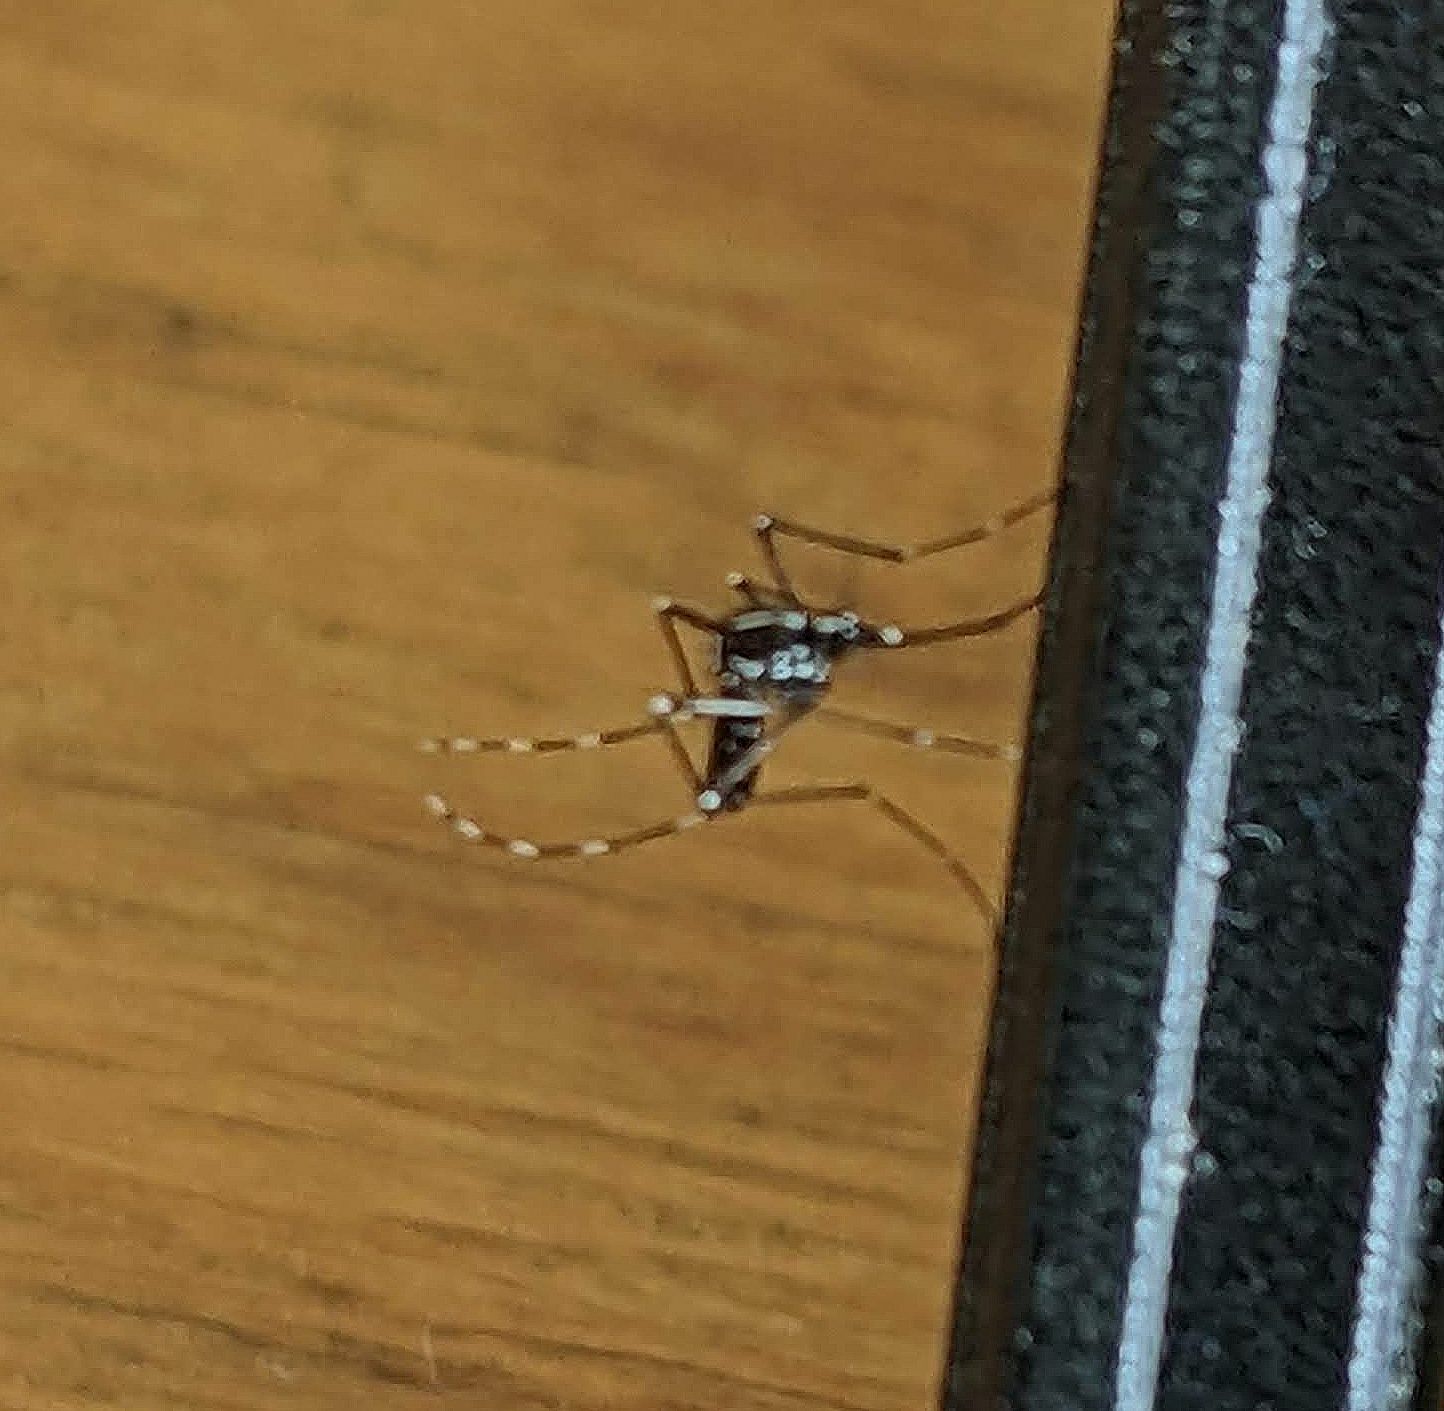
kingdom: Animalia
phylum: Arthropoda
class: Insecta
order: Diptera
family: Culicidae
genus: Aedes
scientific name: Aedes albopictus
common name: Tiger mosquito
